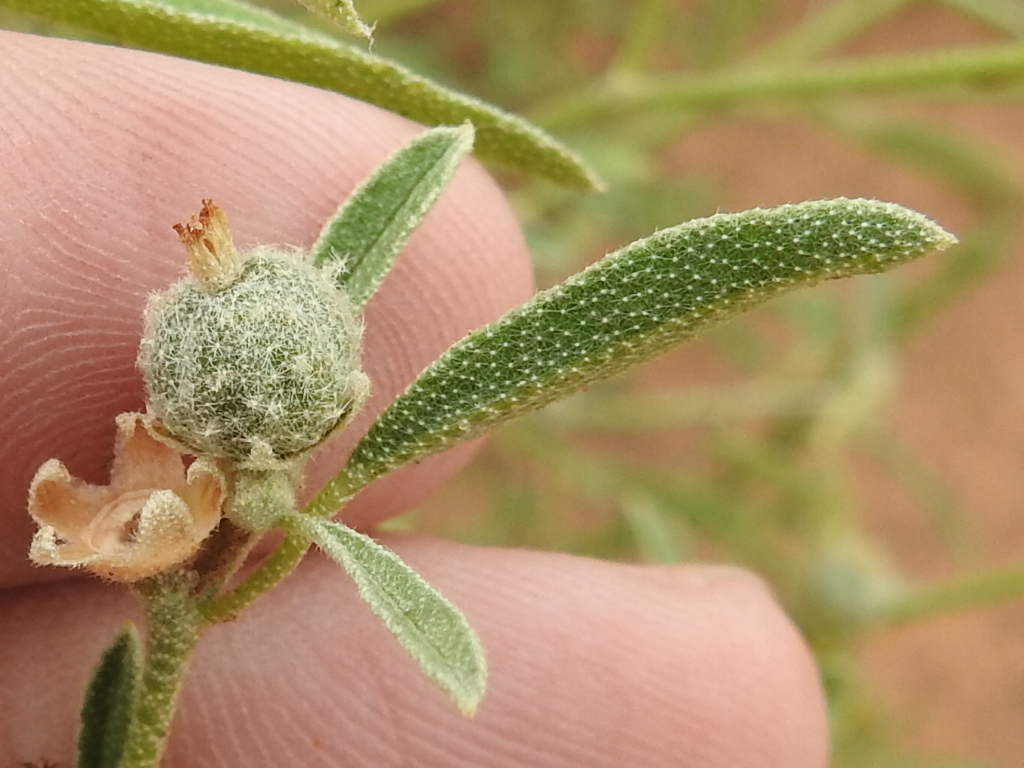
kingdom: Plantae
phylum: Tracheophyta
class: Magnoliopsida
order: Malpighiales
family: Euphorbiaceae
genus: Croton
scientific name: Croton texensis
